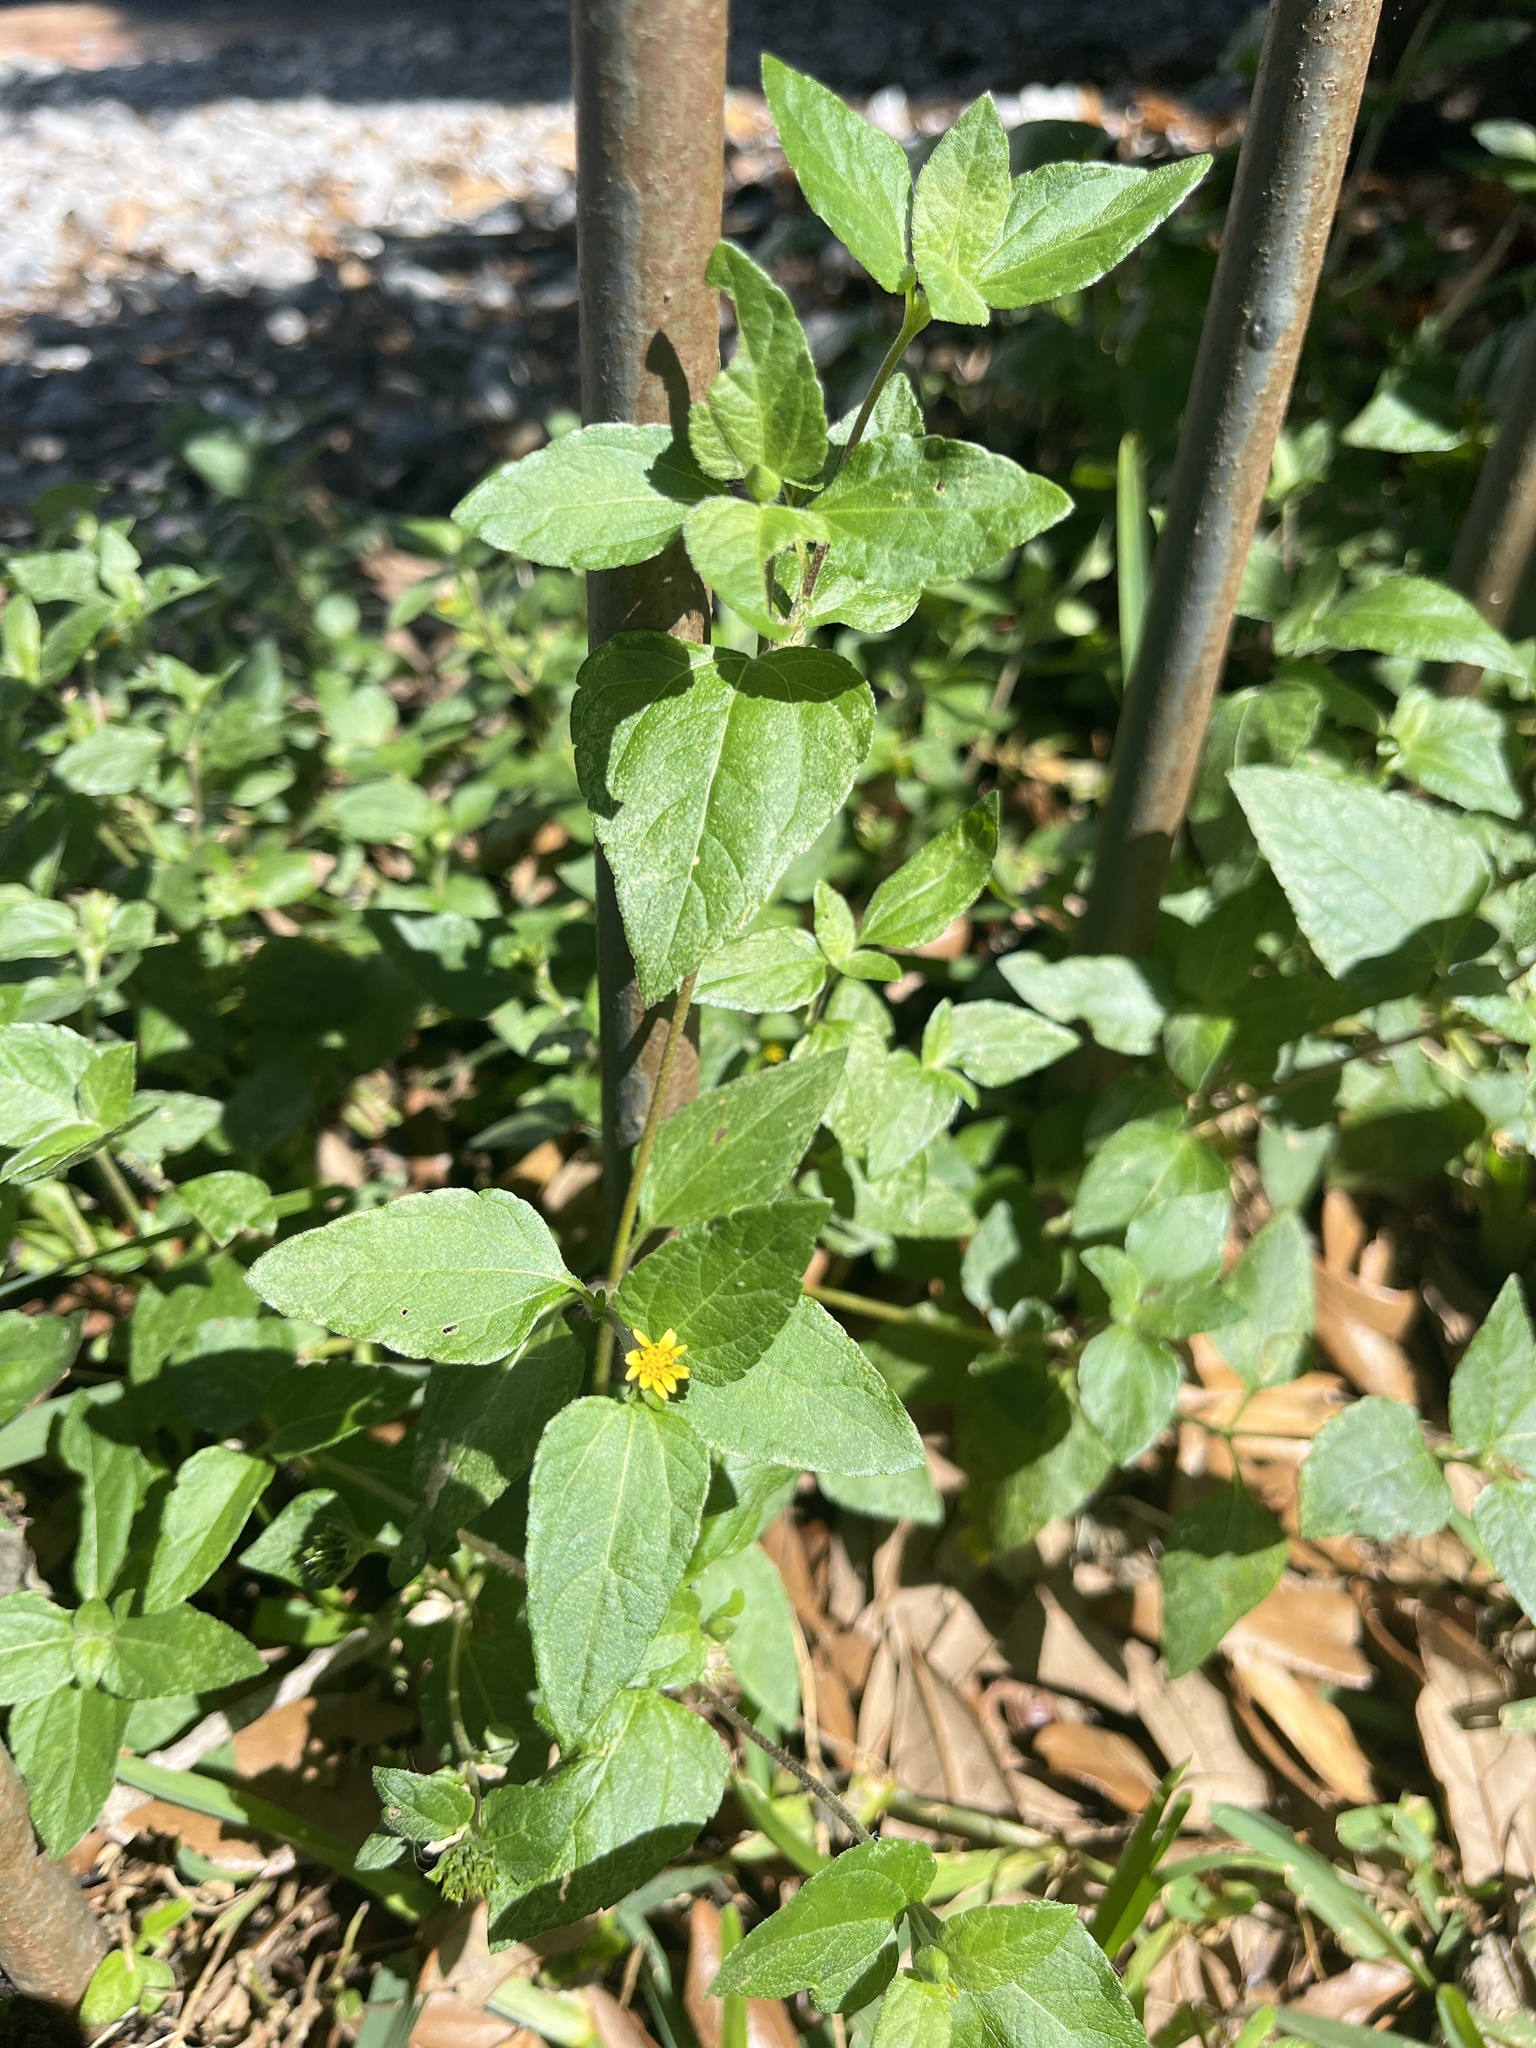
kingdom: Plantae
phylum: Tracheophyta
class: Magnoliopsida
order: Asterales
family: Asteraceae
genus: Calyptocarpus
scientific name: Calyptocarpus vialis
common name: Straggler daisy
